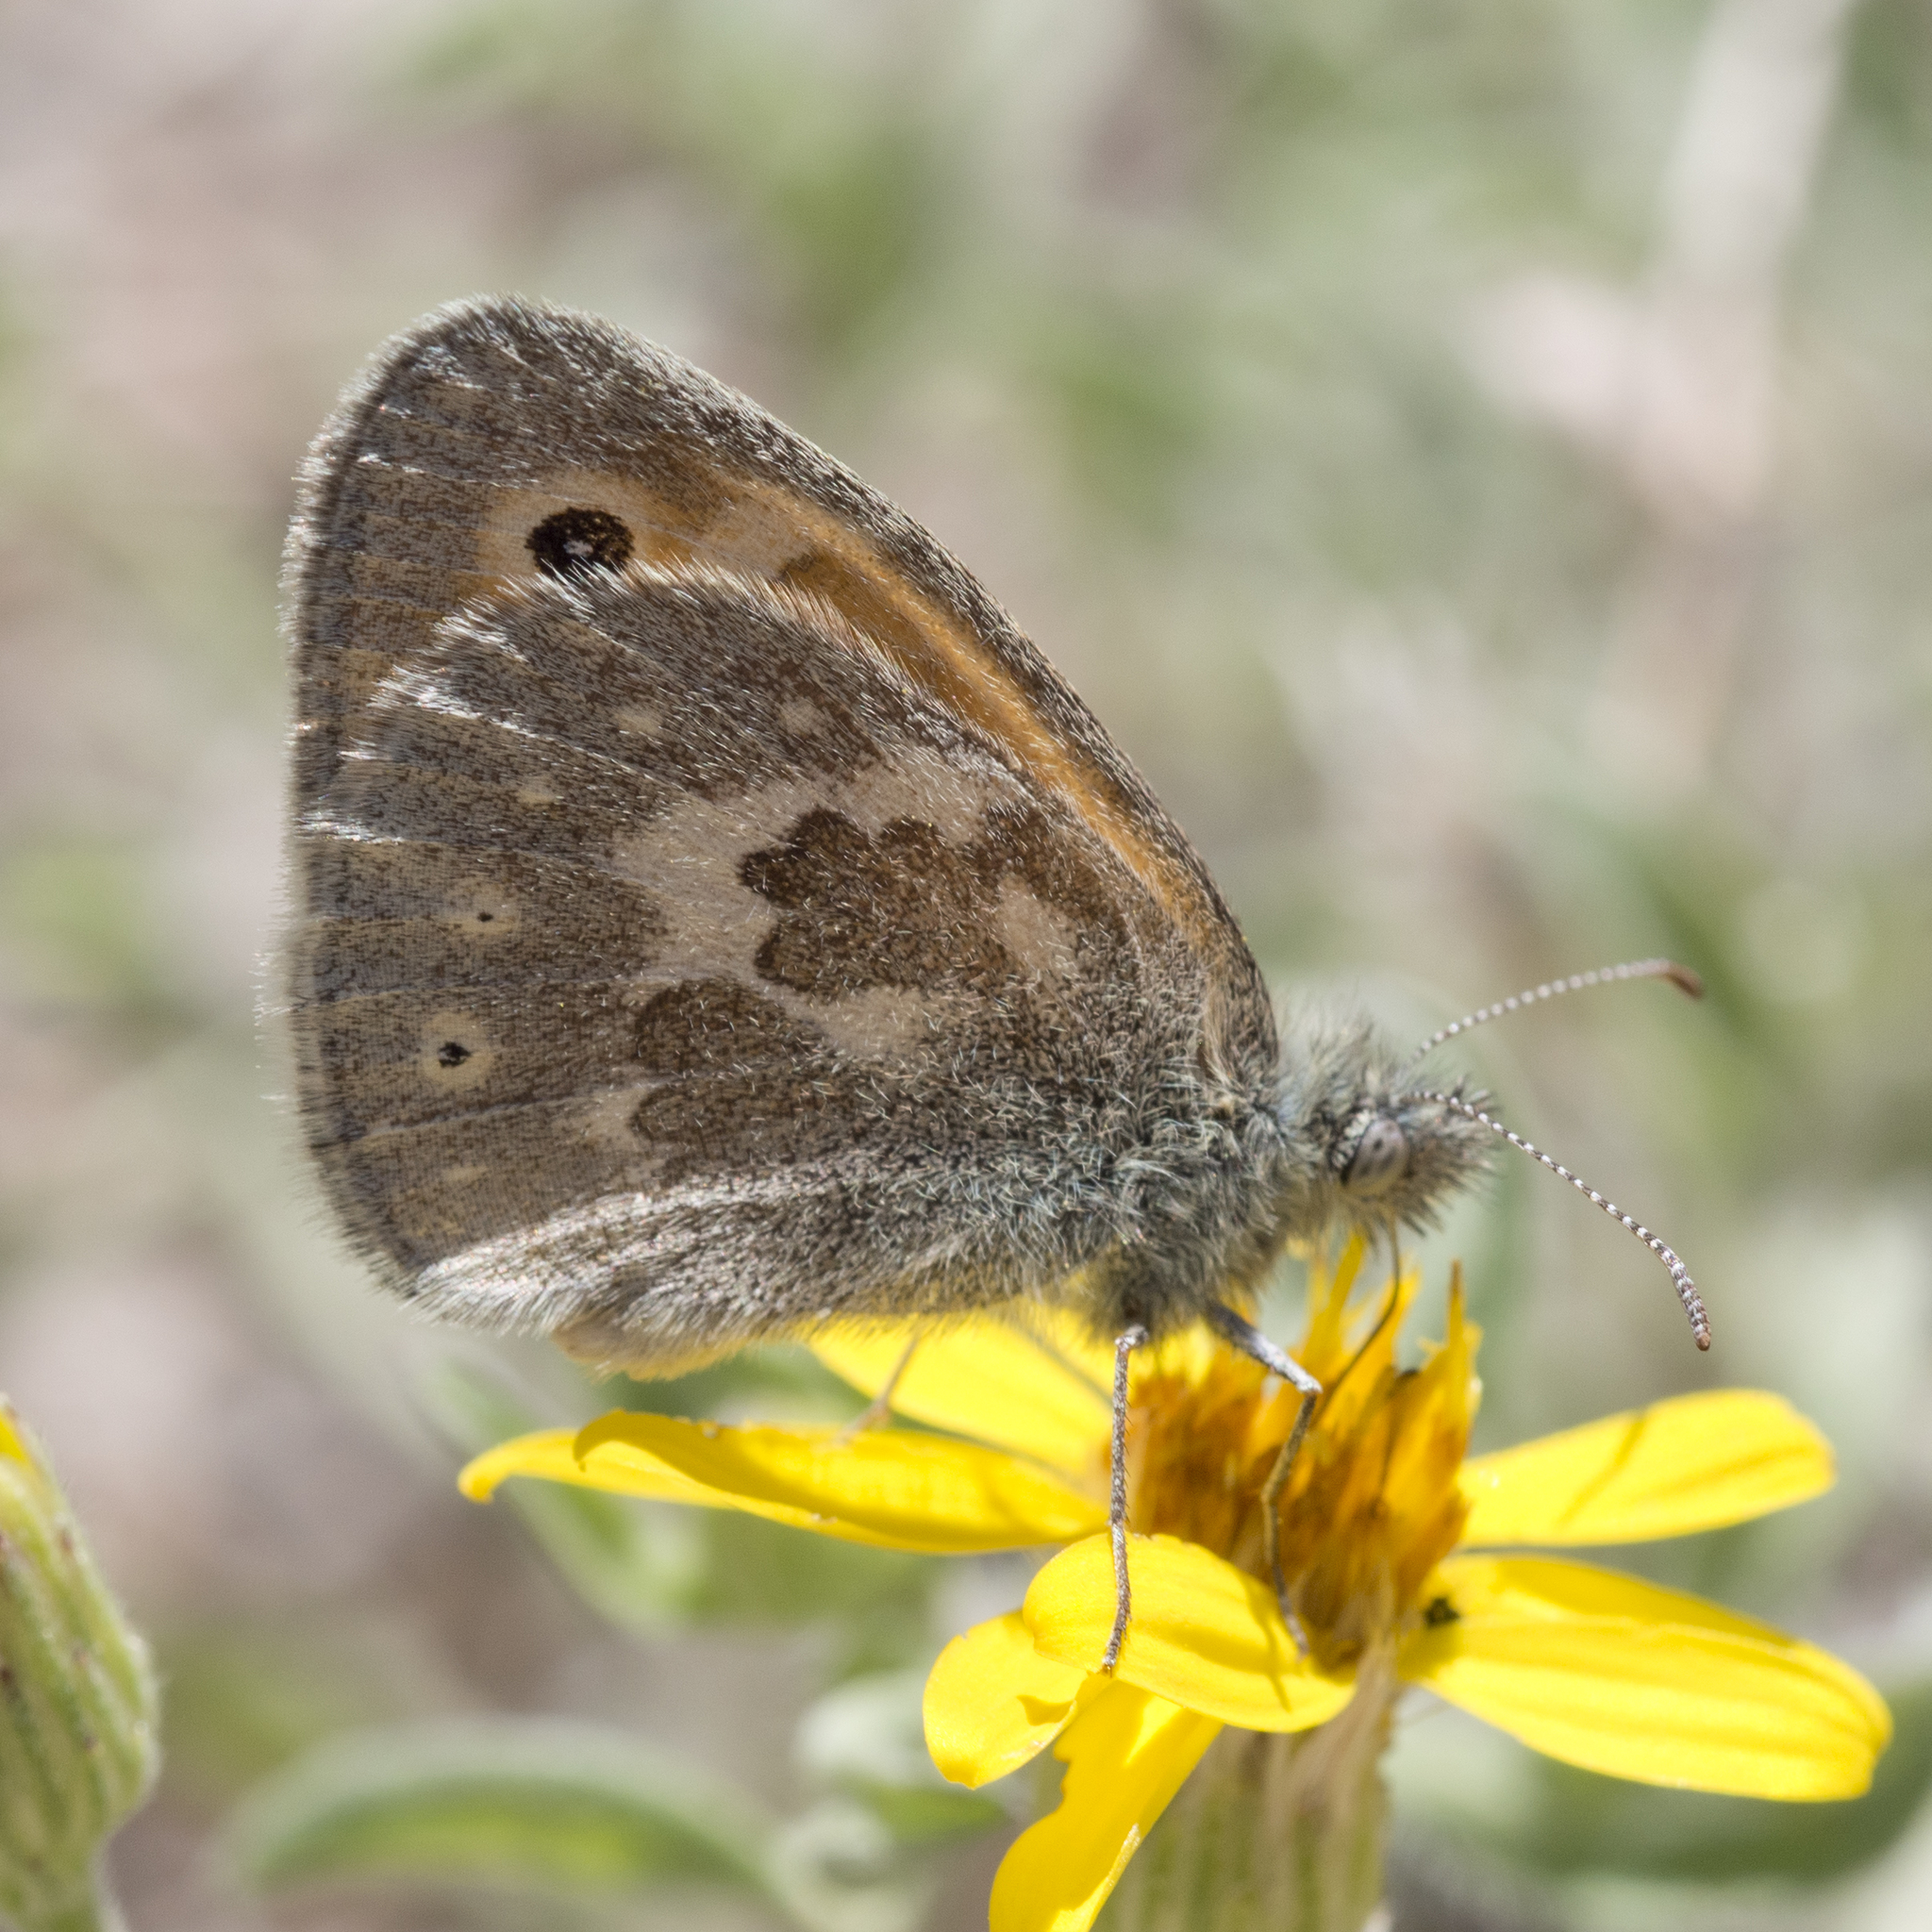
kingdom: Animalia
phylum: Arthropoda
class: Insecta
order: Lepidoptera
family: Nymphalidae
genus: Coenonympha
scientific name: Coenonympha california
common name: Common ringlet
